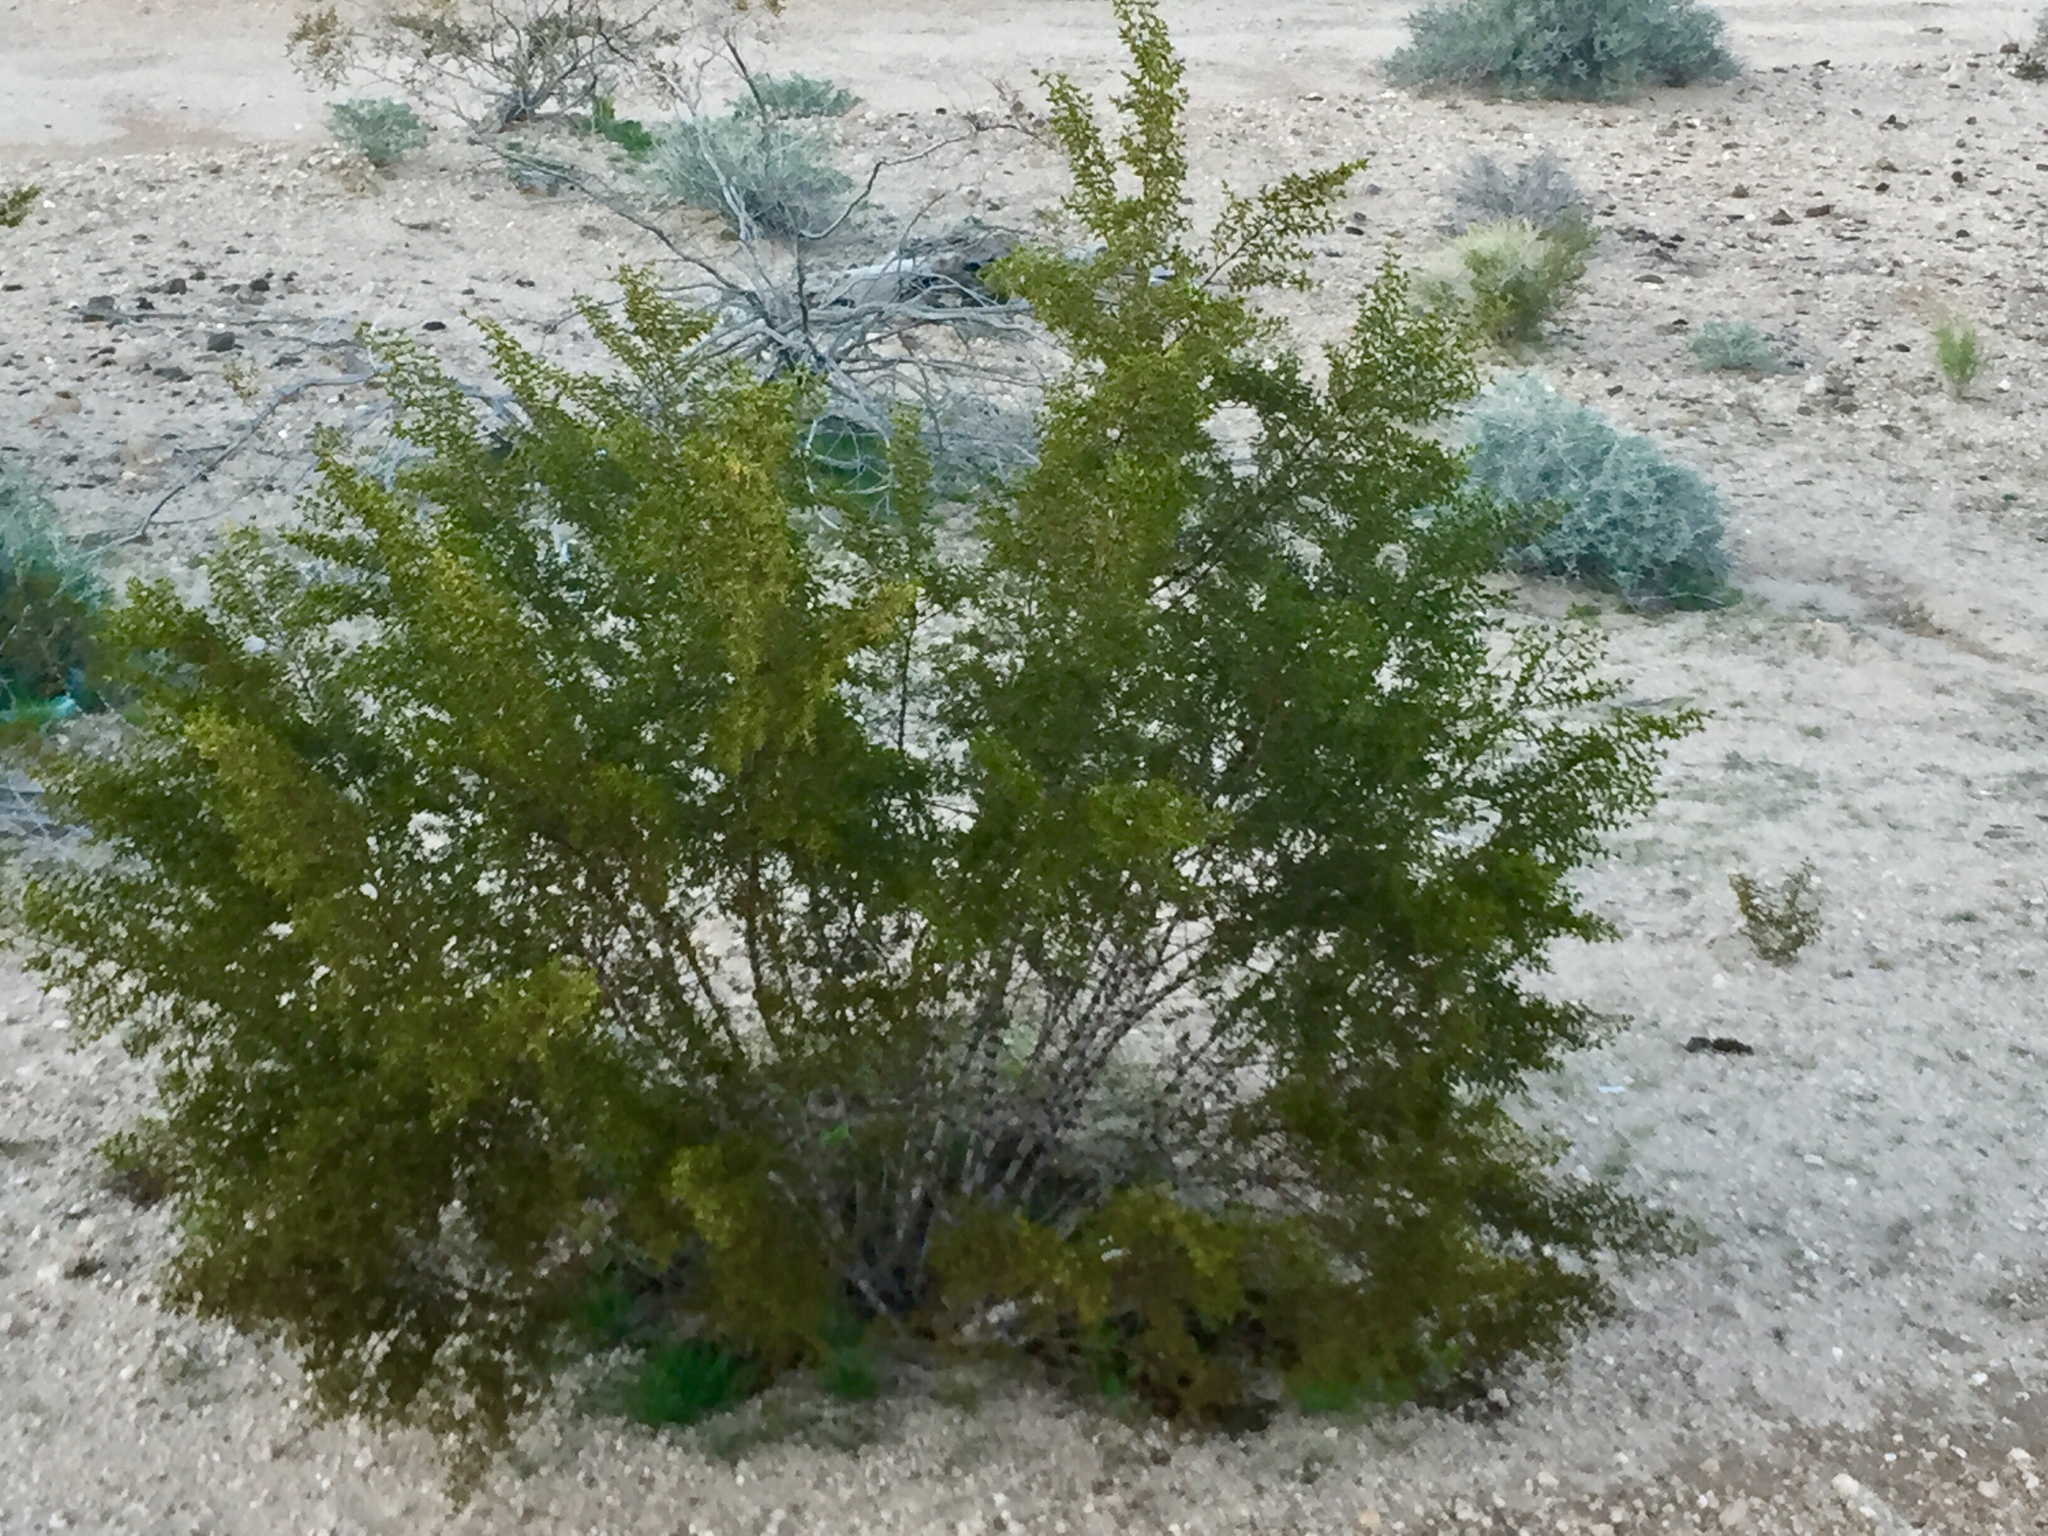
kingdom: Plantae
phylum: Tracheophyta
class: Magnoliopsida
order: Zygophyllales
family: Zygophyllaceae
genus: Larrea
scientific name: Larrea tridentata
